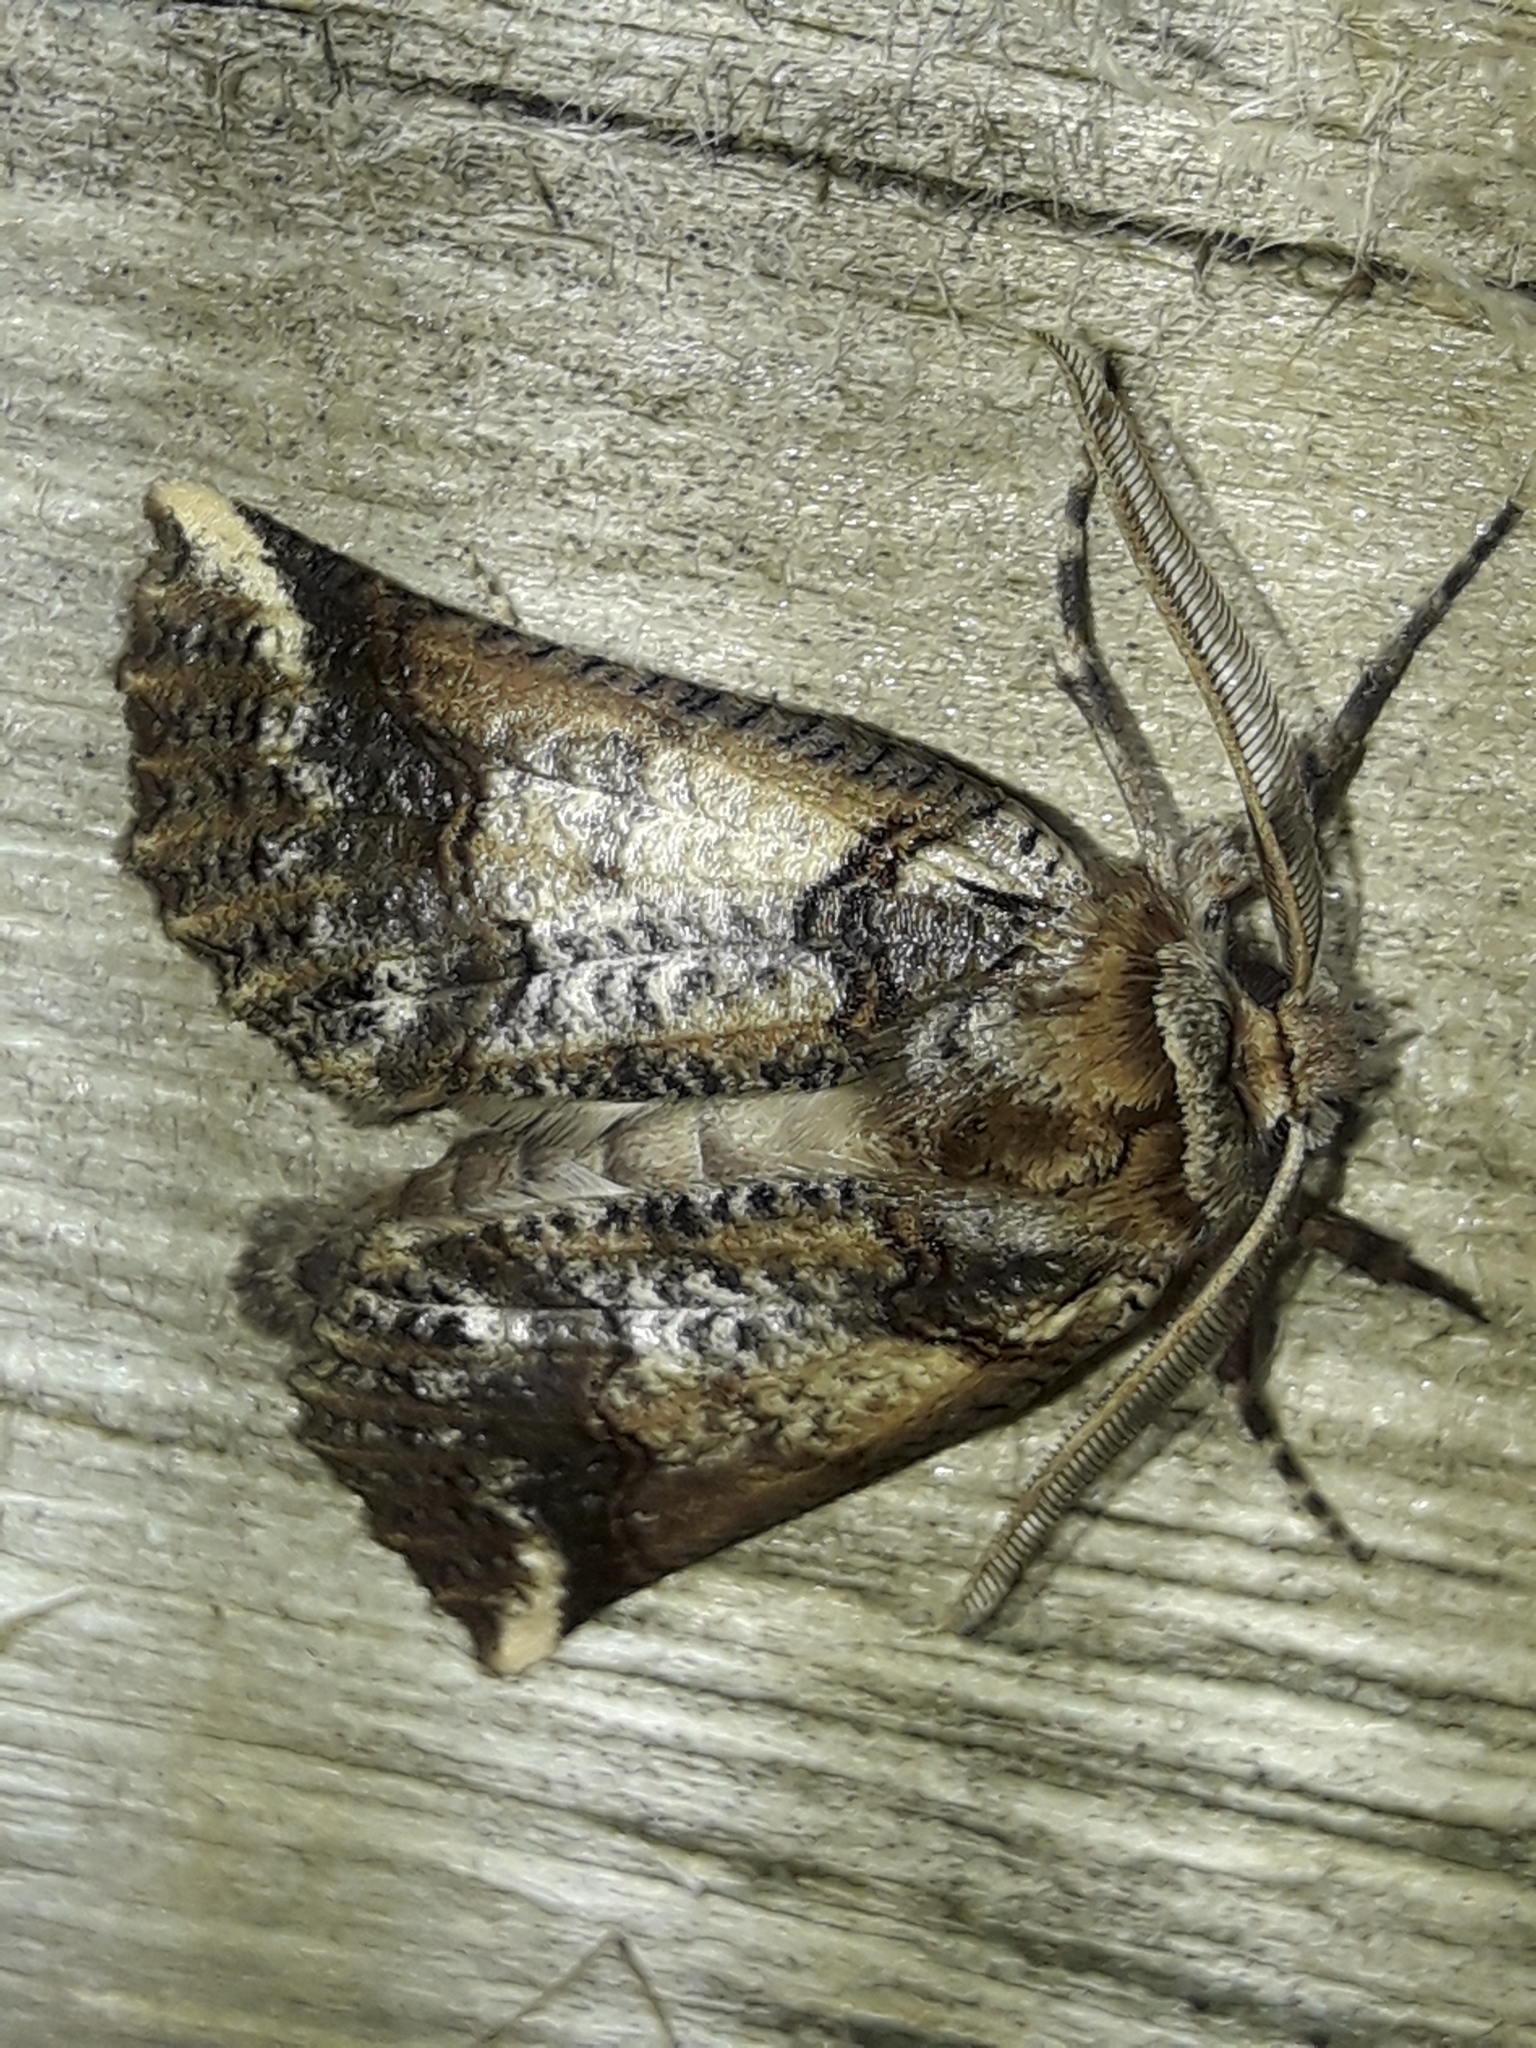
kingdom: Animalia
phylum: Arthropoda
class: Insecta
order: Lepidoptera
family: Geometridae
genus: Declana
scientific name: Declana
